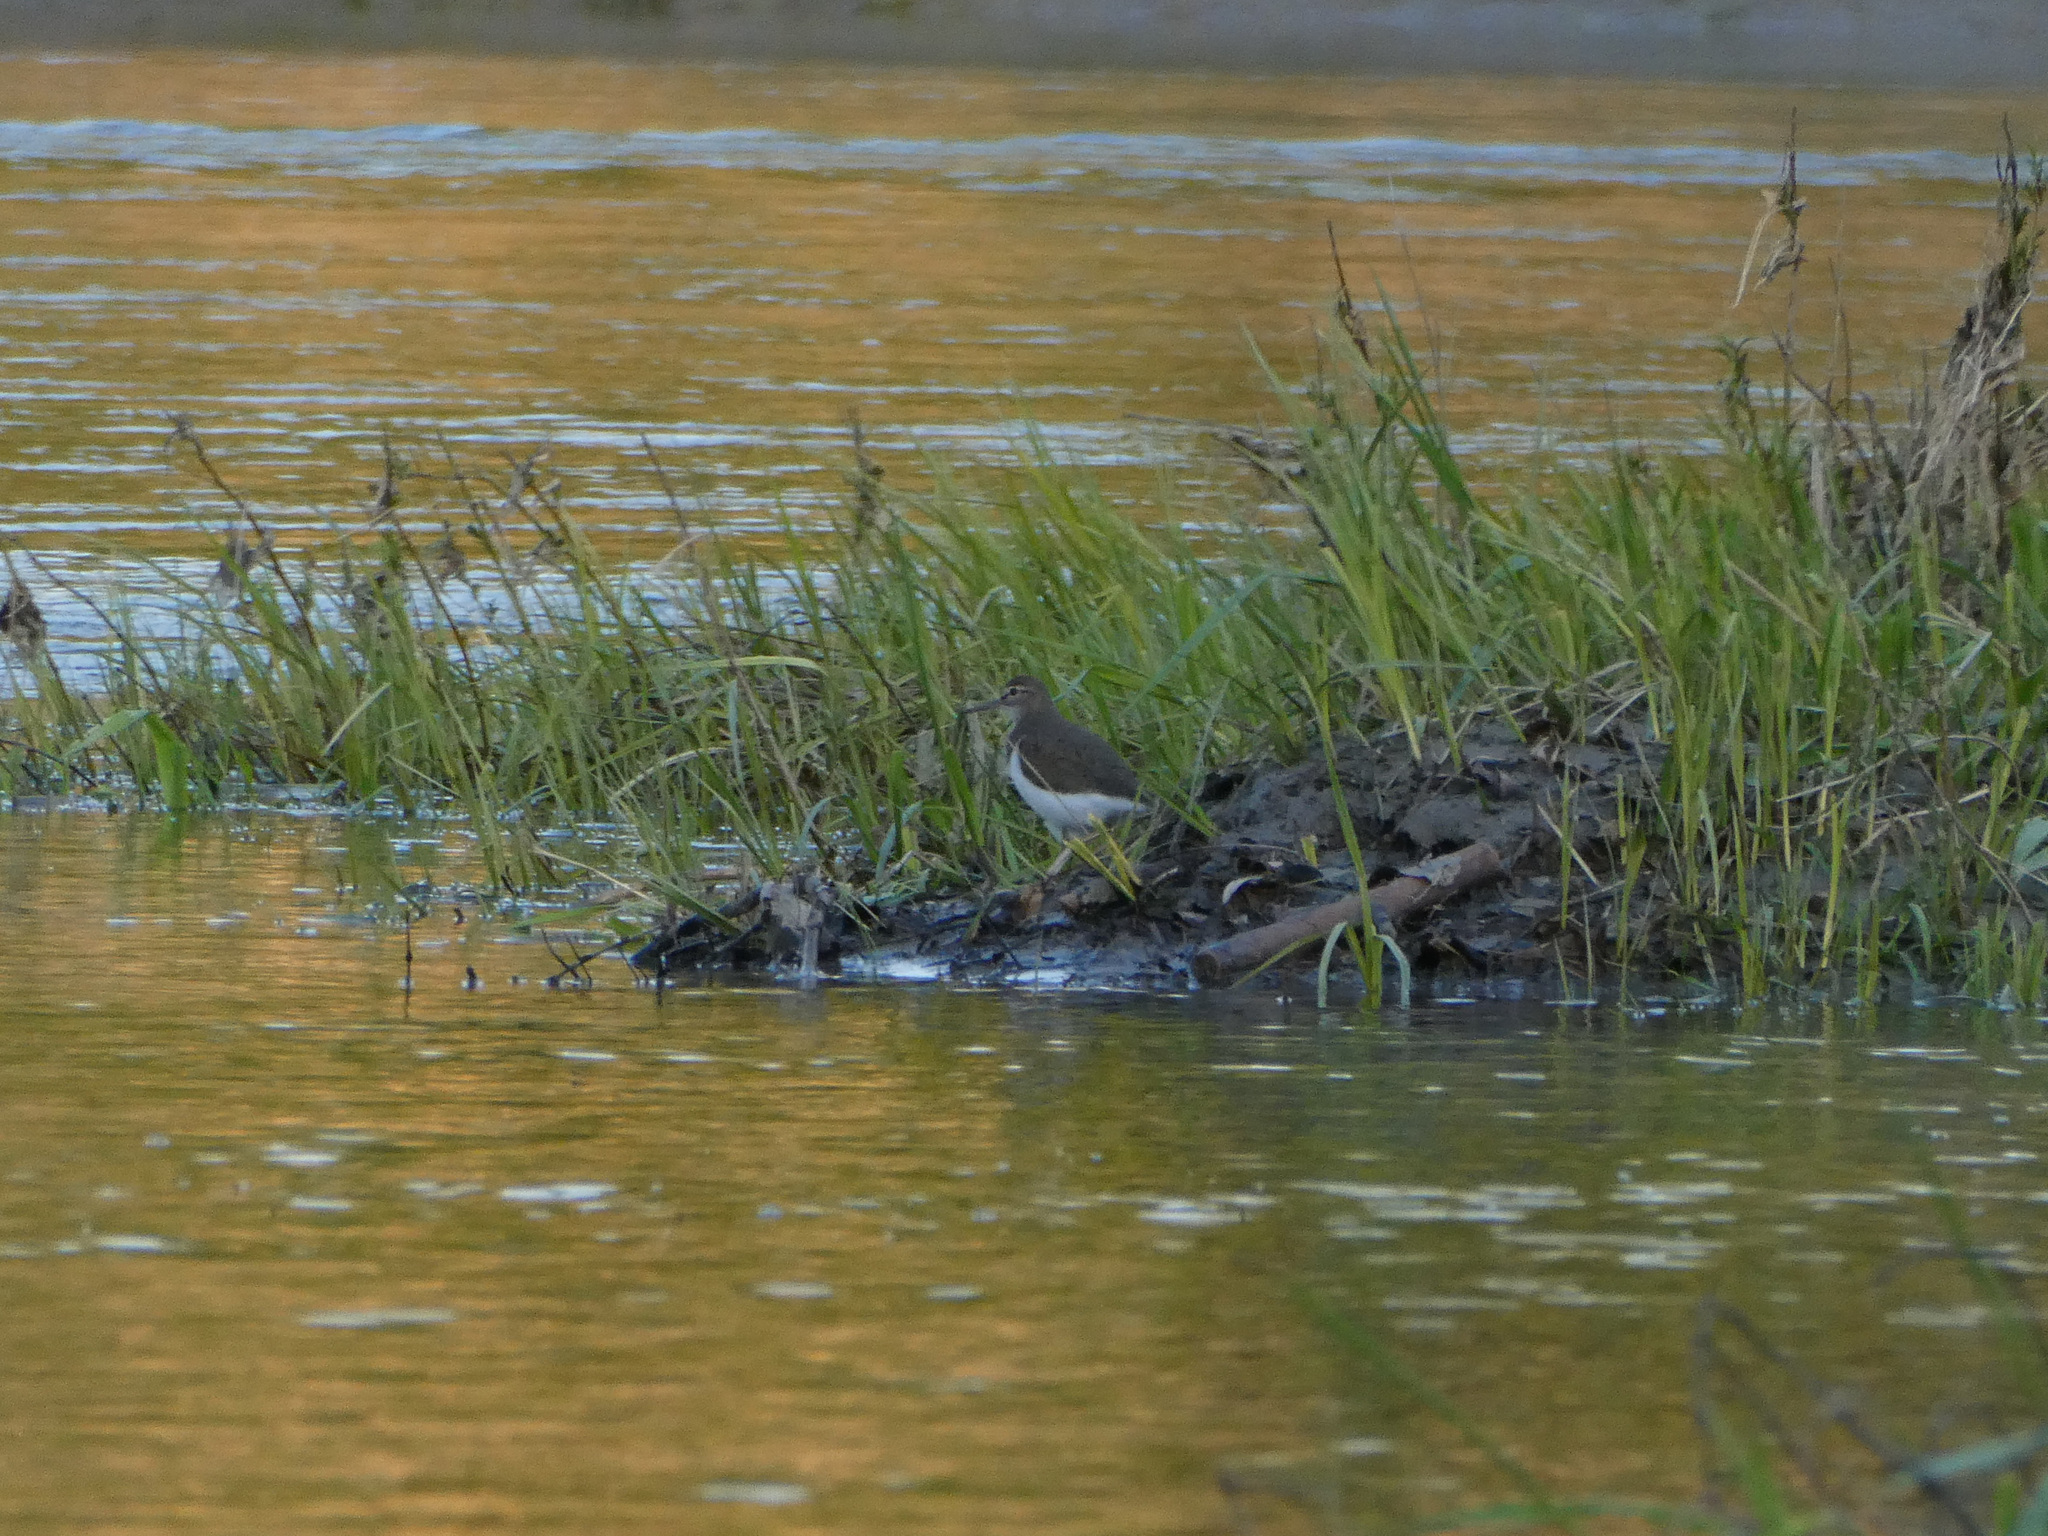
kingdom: Animalia
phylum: Chordata
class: Aves
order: Charadriiformes
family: Scolopacidae
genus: Actitis
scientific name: Actitis hypoleucos
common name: Common sandpiper
